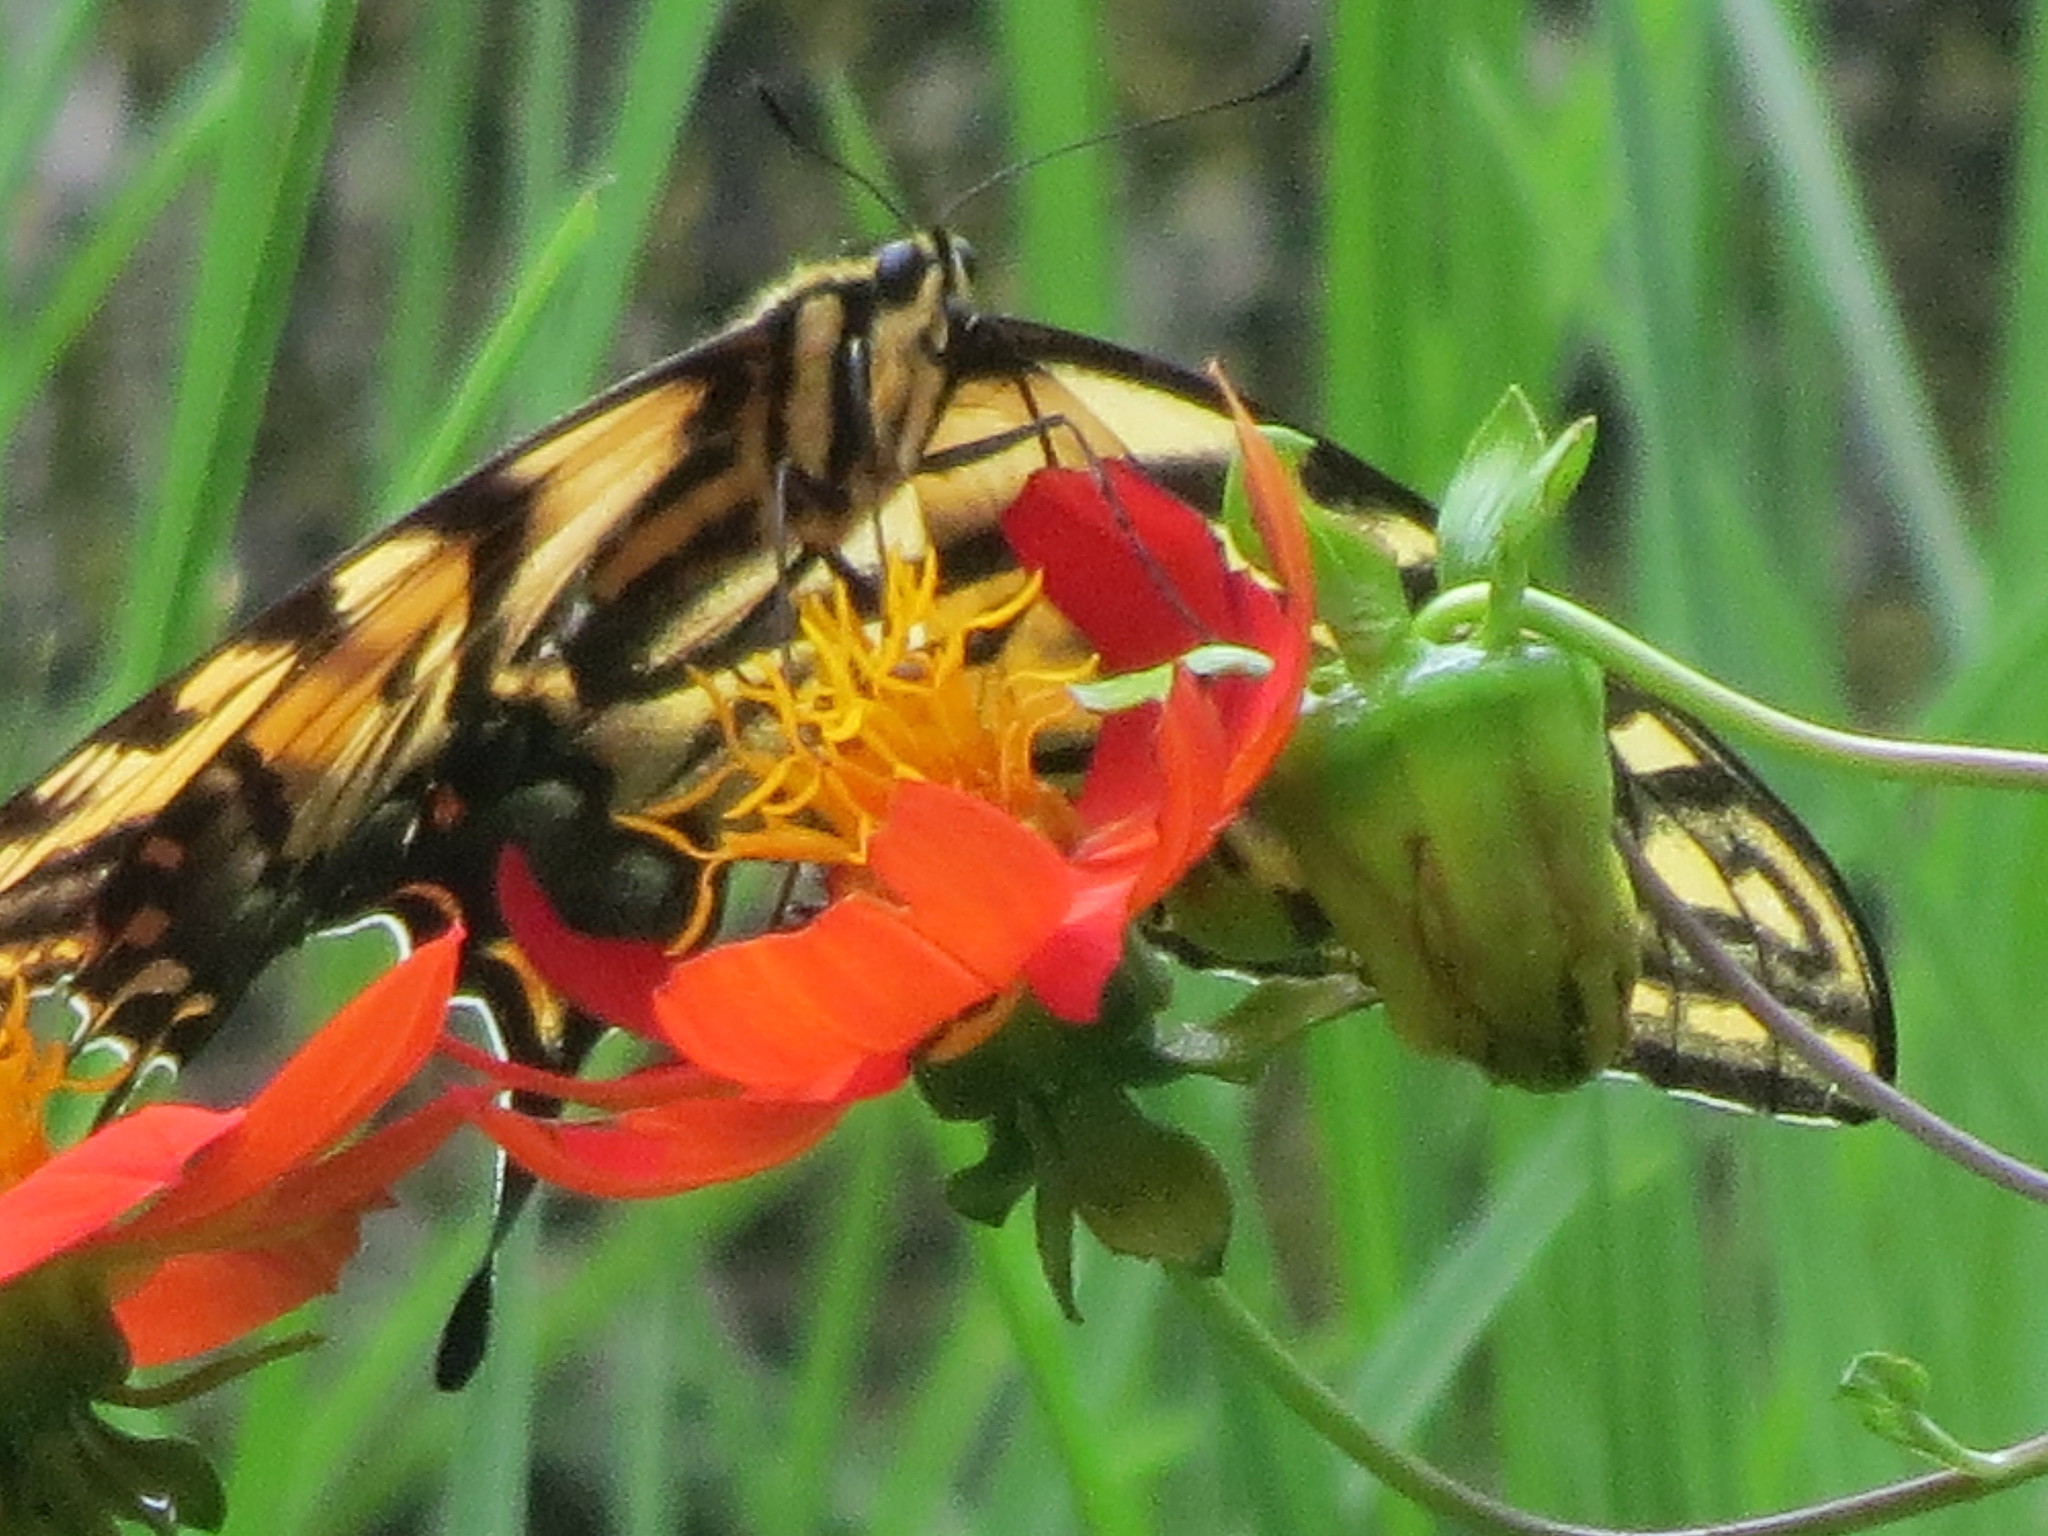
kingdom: Plantae
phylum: Tracheophyta
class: Magnoliopsida
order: Asterales
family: Asteraceae
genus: Dahlia
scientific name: Dahlia coccinea
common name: Red dahlia
